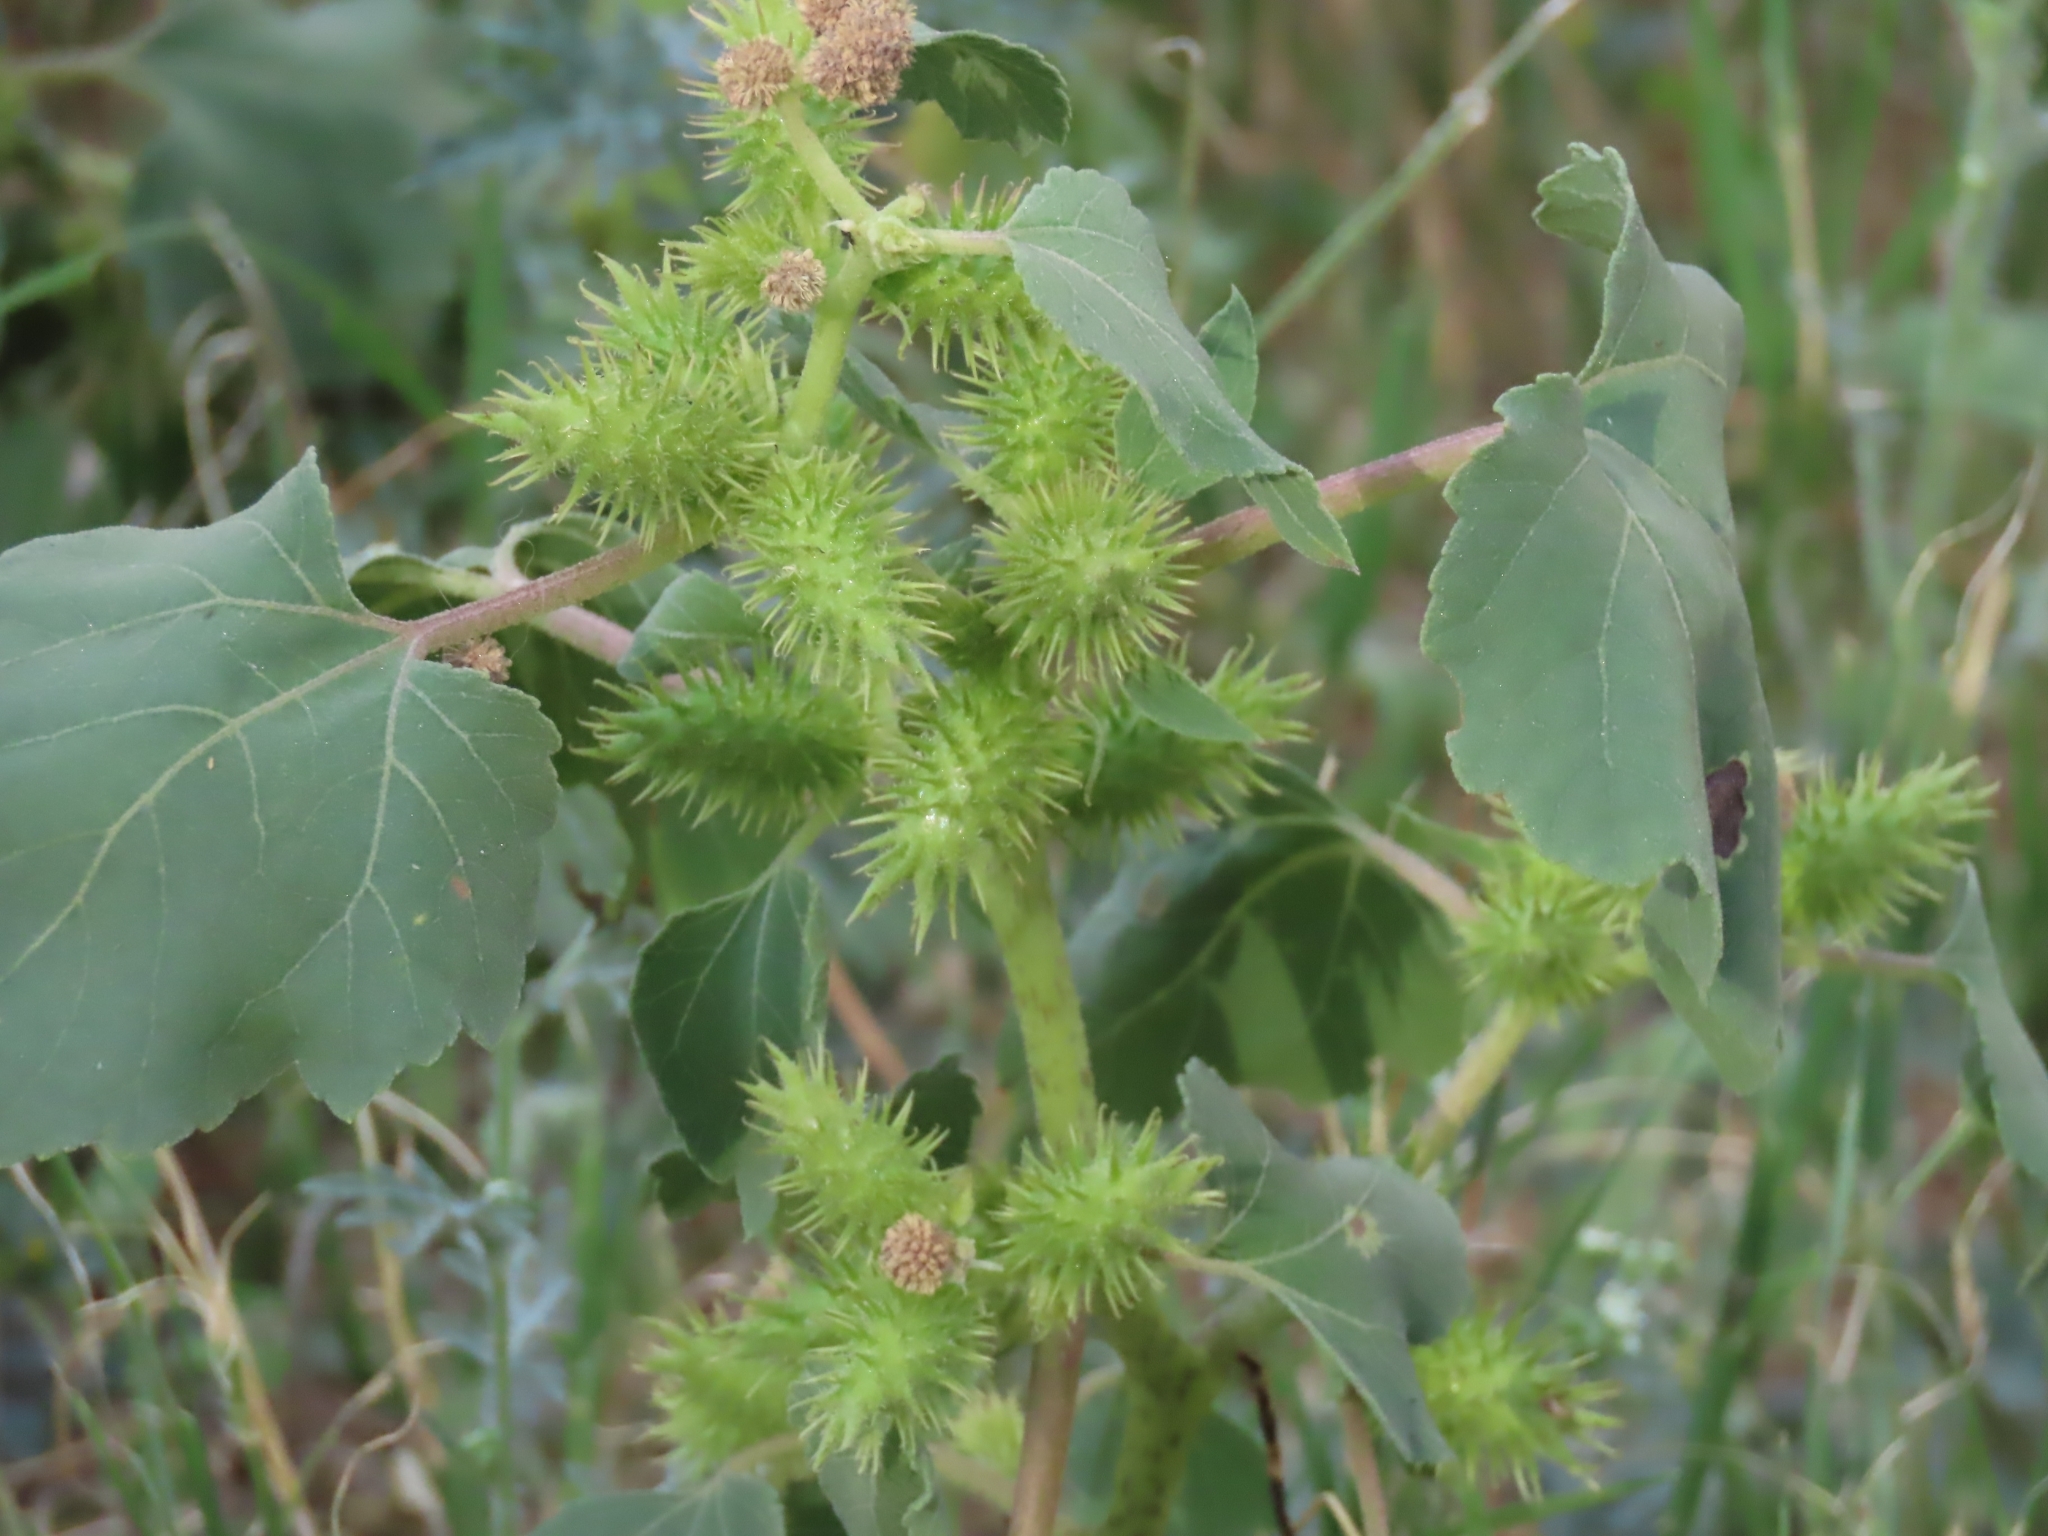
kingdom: Plantae
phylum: Tracheophyta
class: Magnoliopsida
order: Asterales
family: Asteraceae
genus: Xanthium
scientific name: Xanthium strumarium
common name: Rough cocklebur
